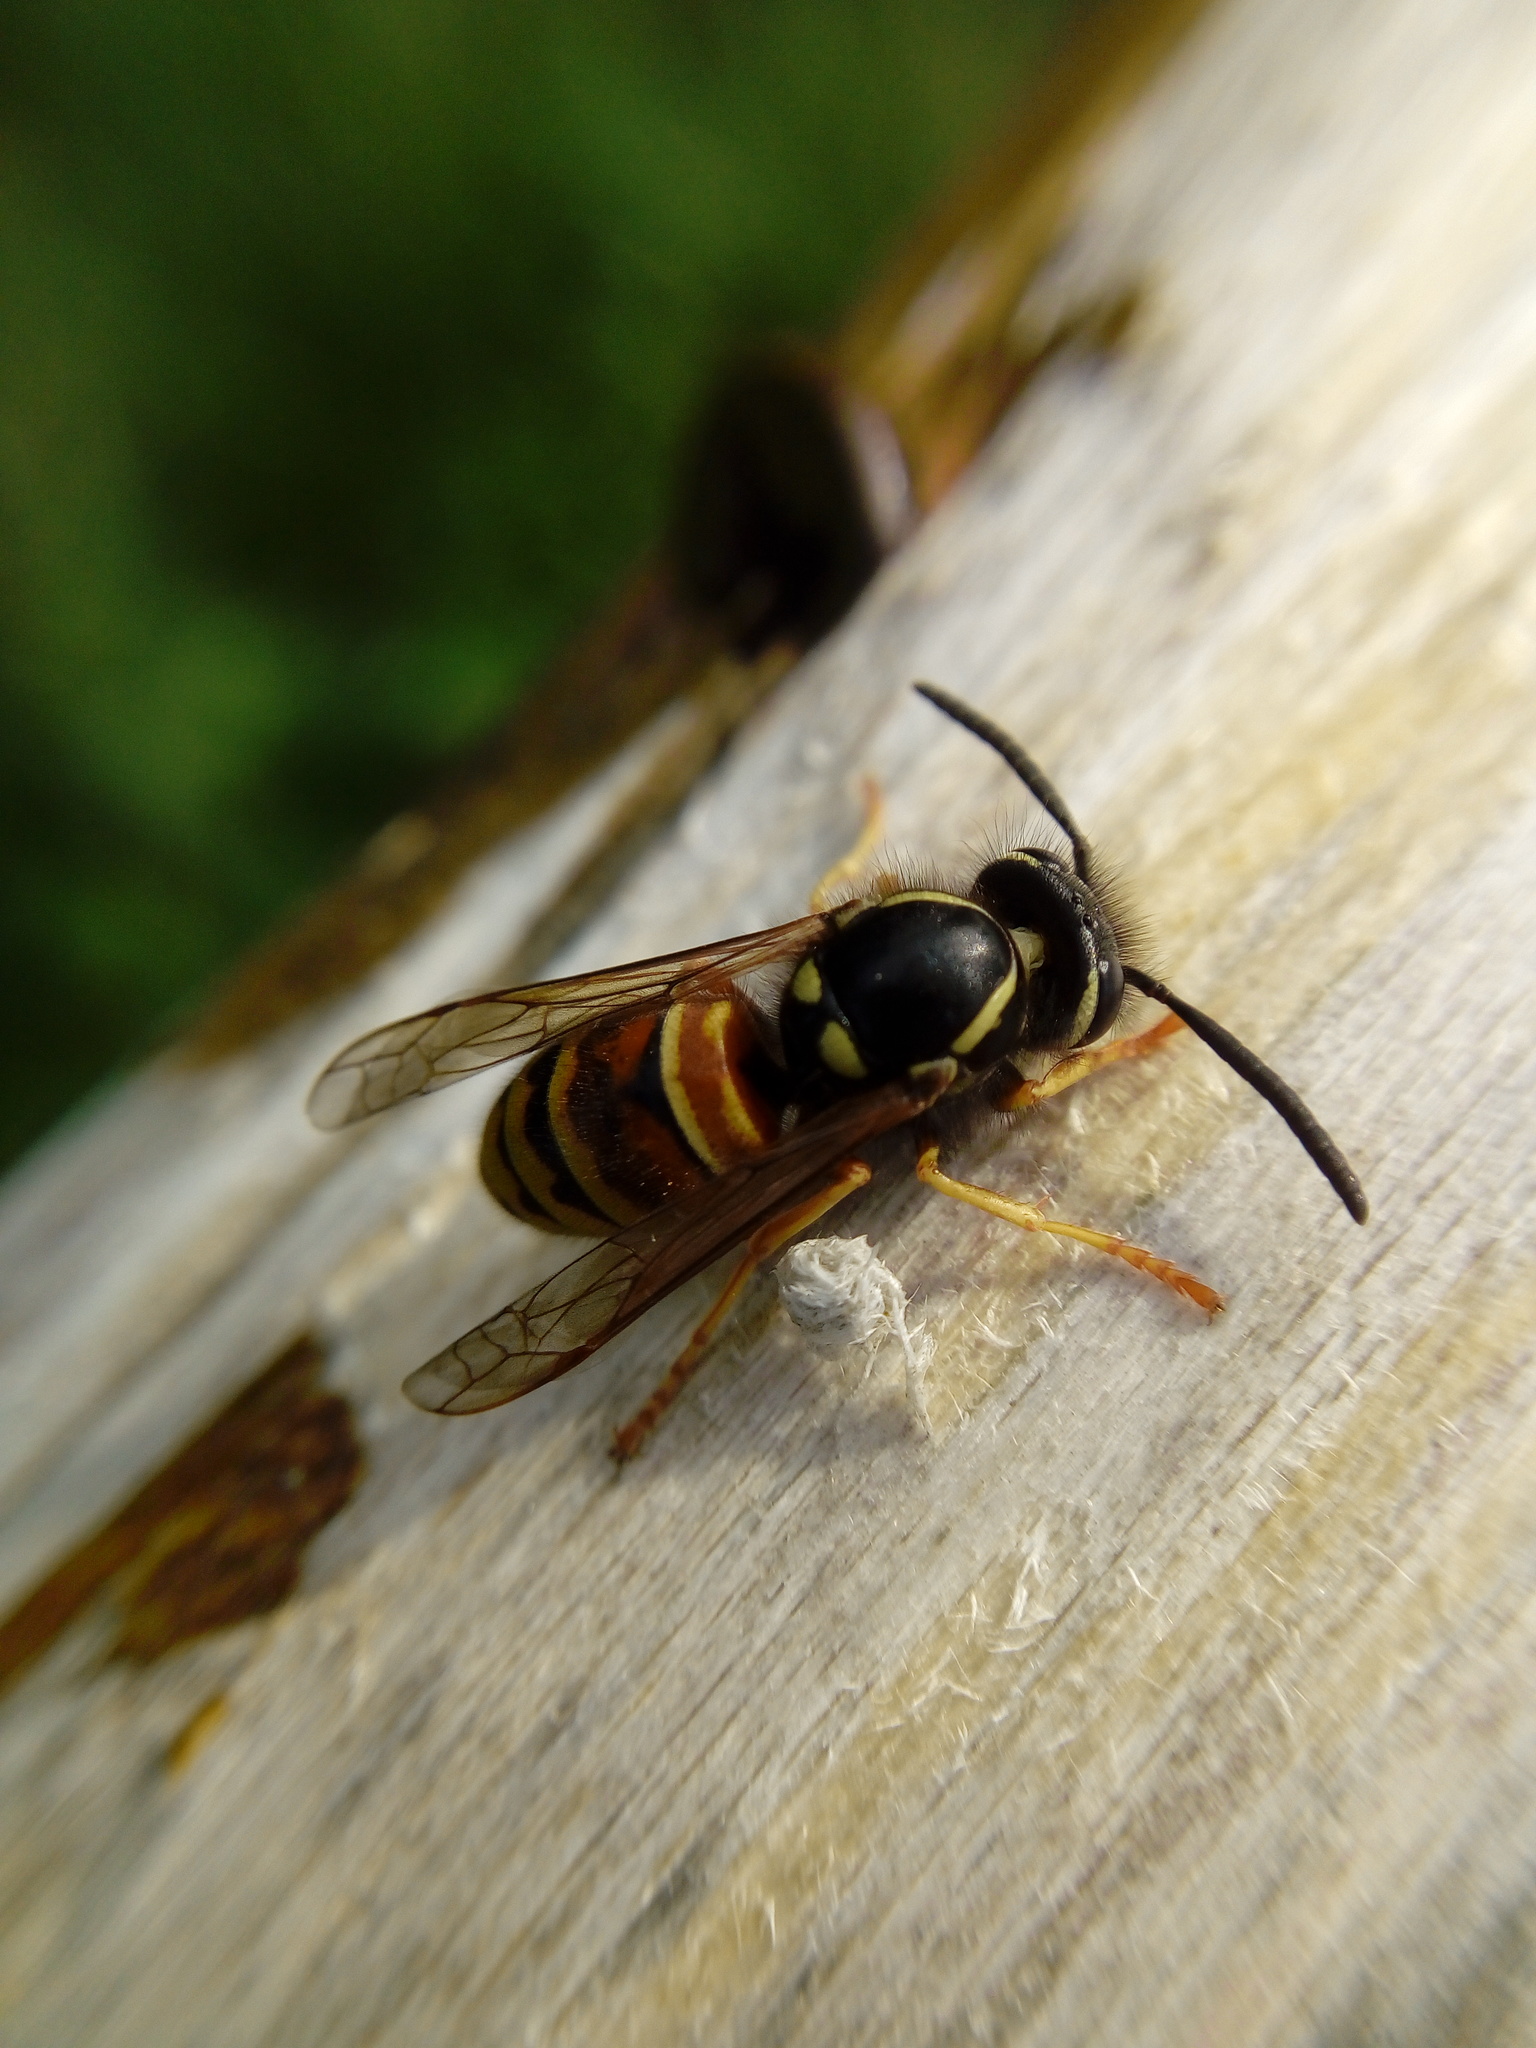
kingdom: Animalia
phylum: Arthropoda
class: Insecta
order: Hymenoptera
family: Vespidae
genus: Vespula
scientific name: Vespula rufa
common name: Red wasp
